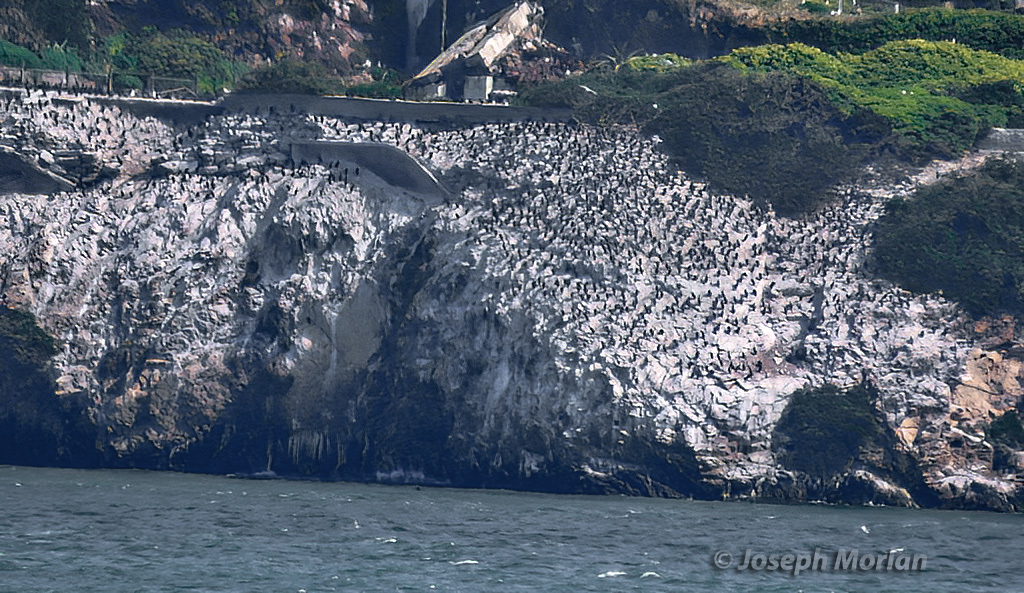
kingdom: Animalia
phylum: Chordata
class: Aves
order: Suliformes
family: Phalacrocoracidae
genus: Urile
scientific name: Urile penicillatus
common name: Brandt's cormorant
